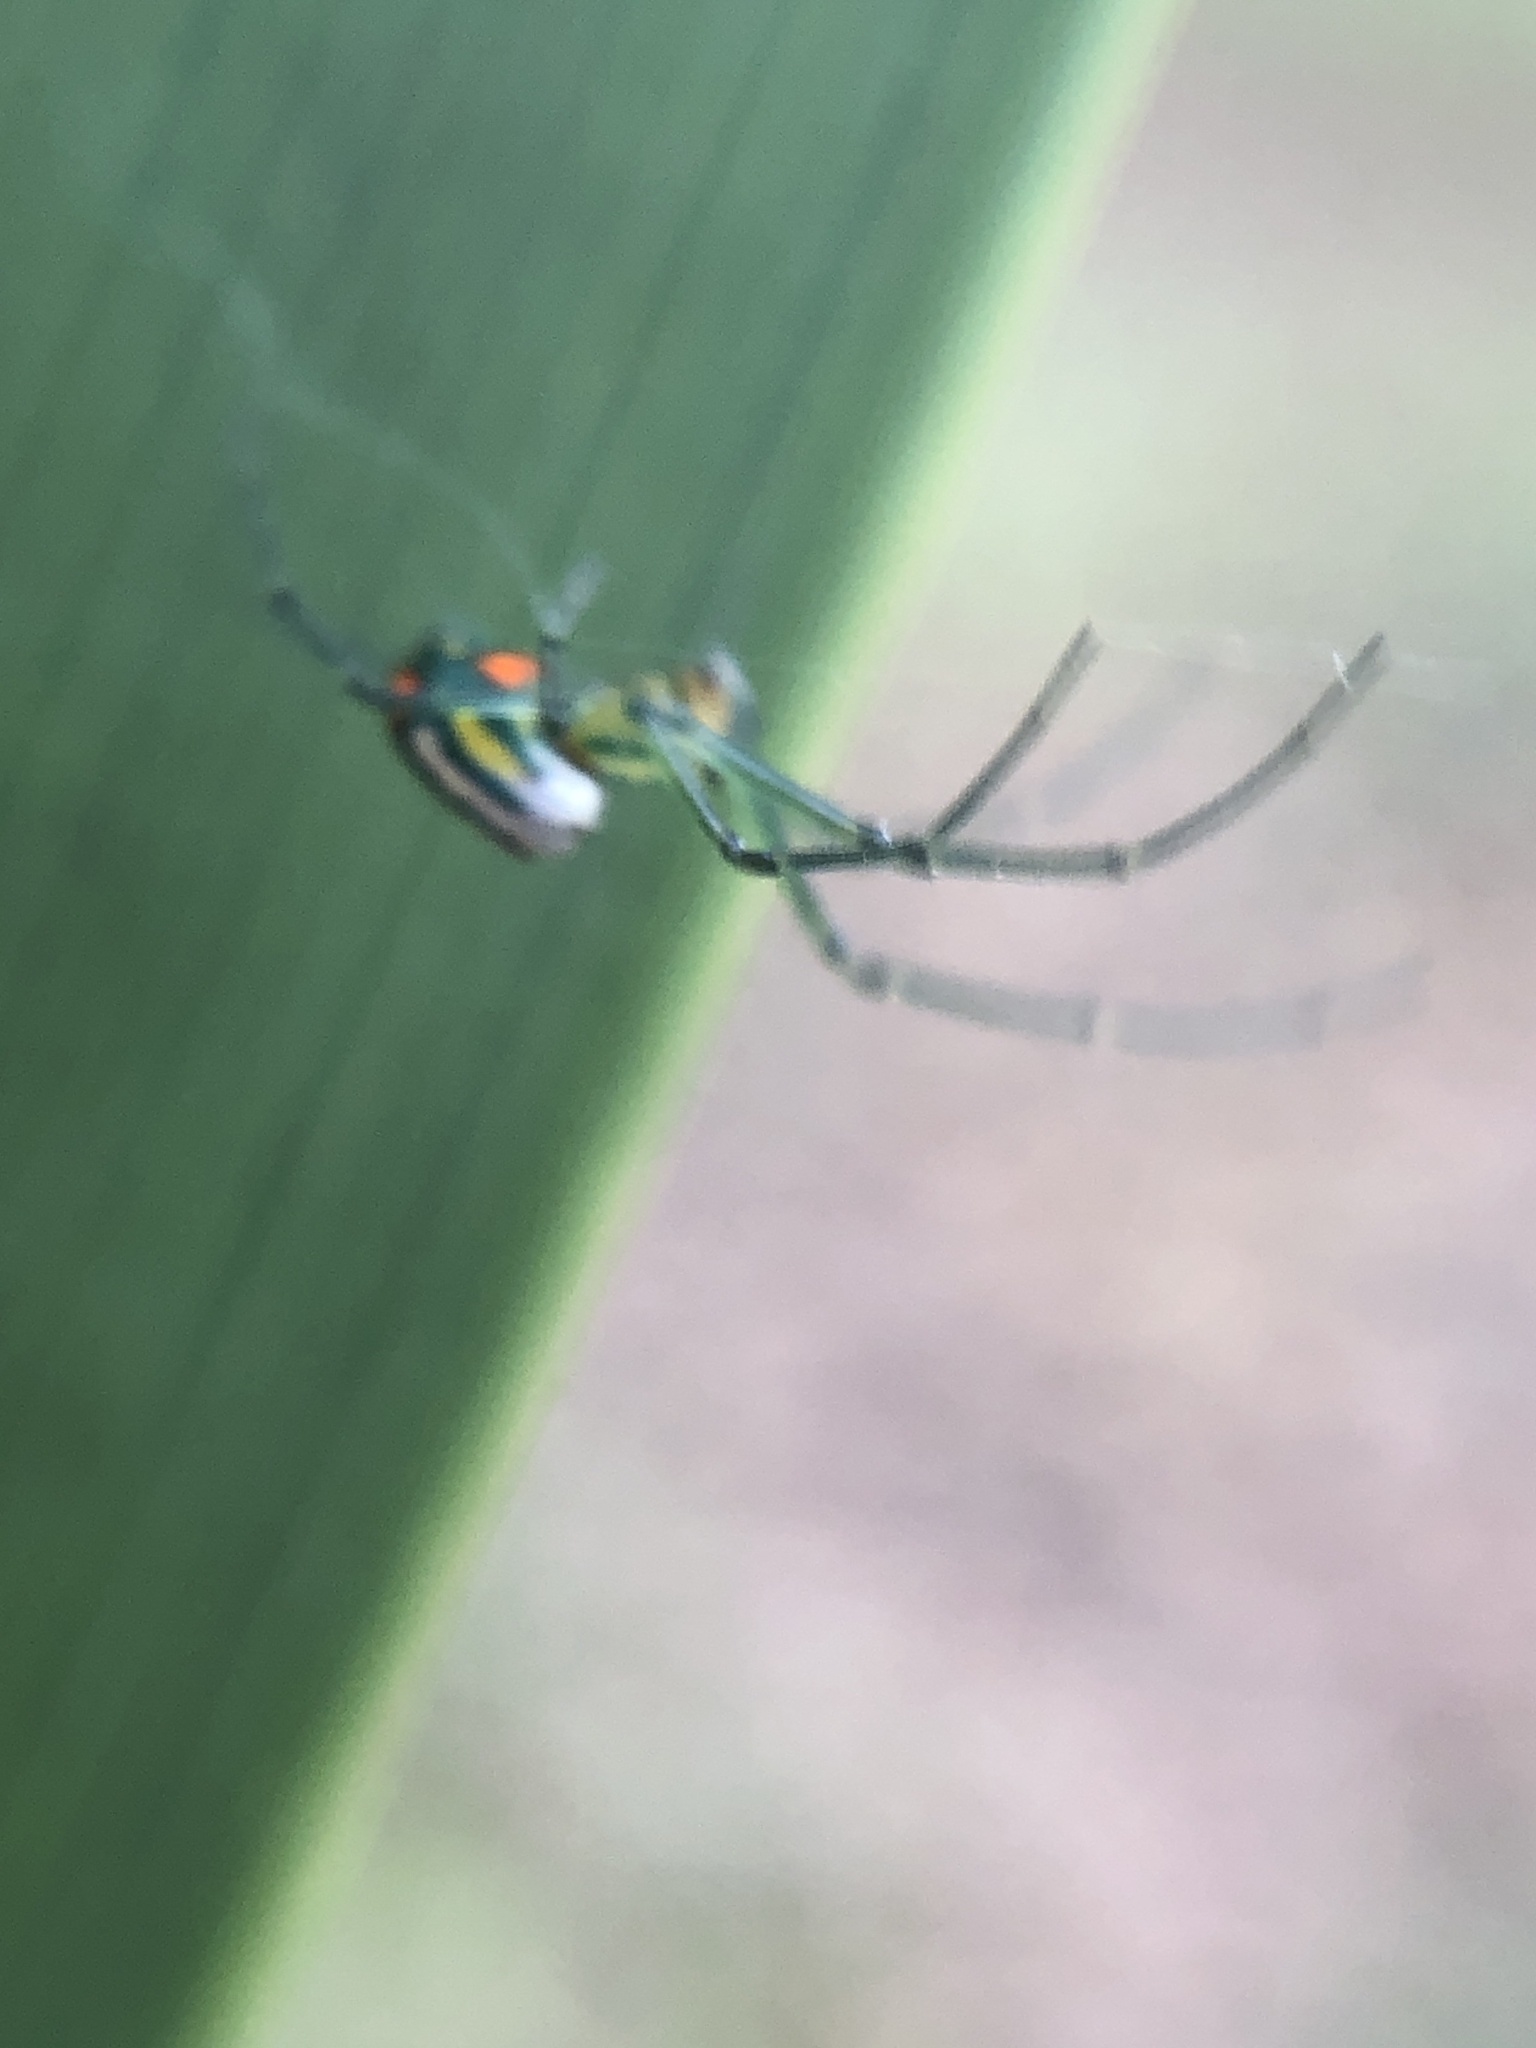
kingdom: Animalia
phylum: Arthropoda
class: Arachnida
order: Araneae
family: Tetragnathidae
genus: Leucauge
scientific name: Leucauge argyrobapta
